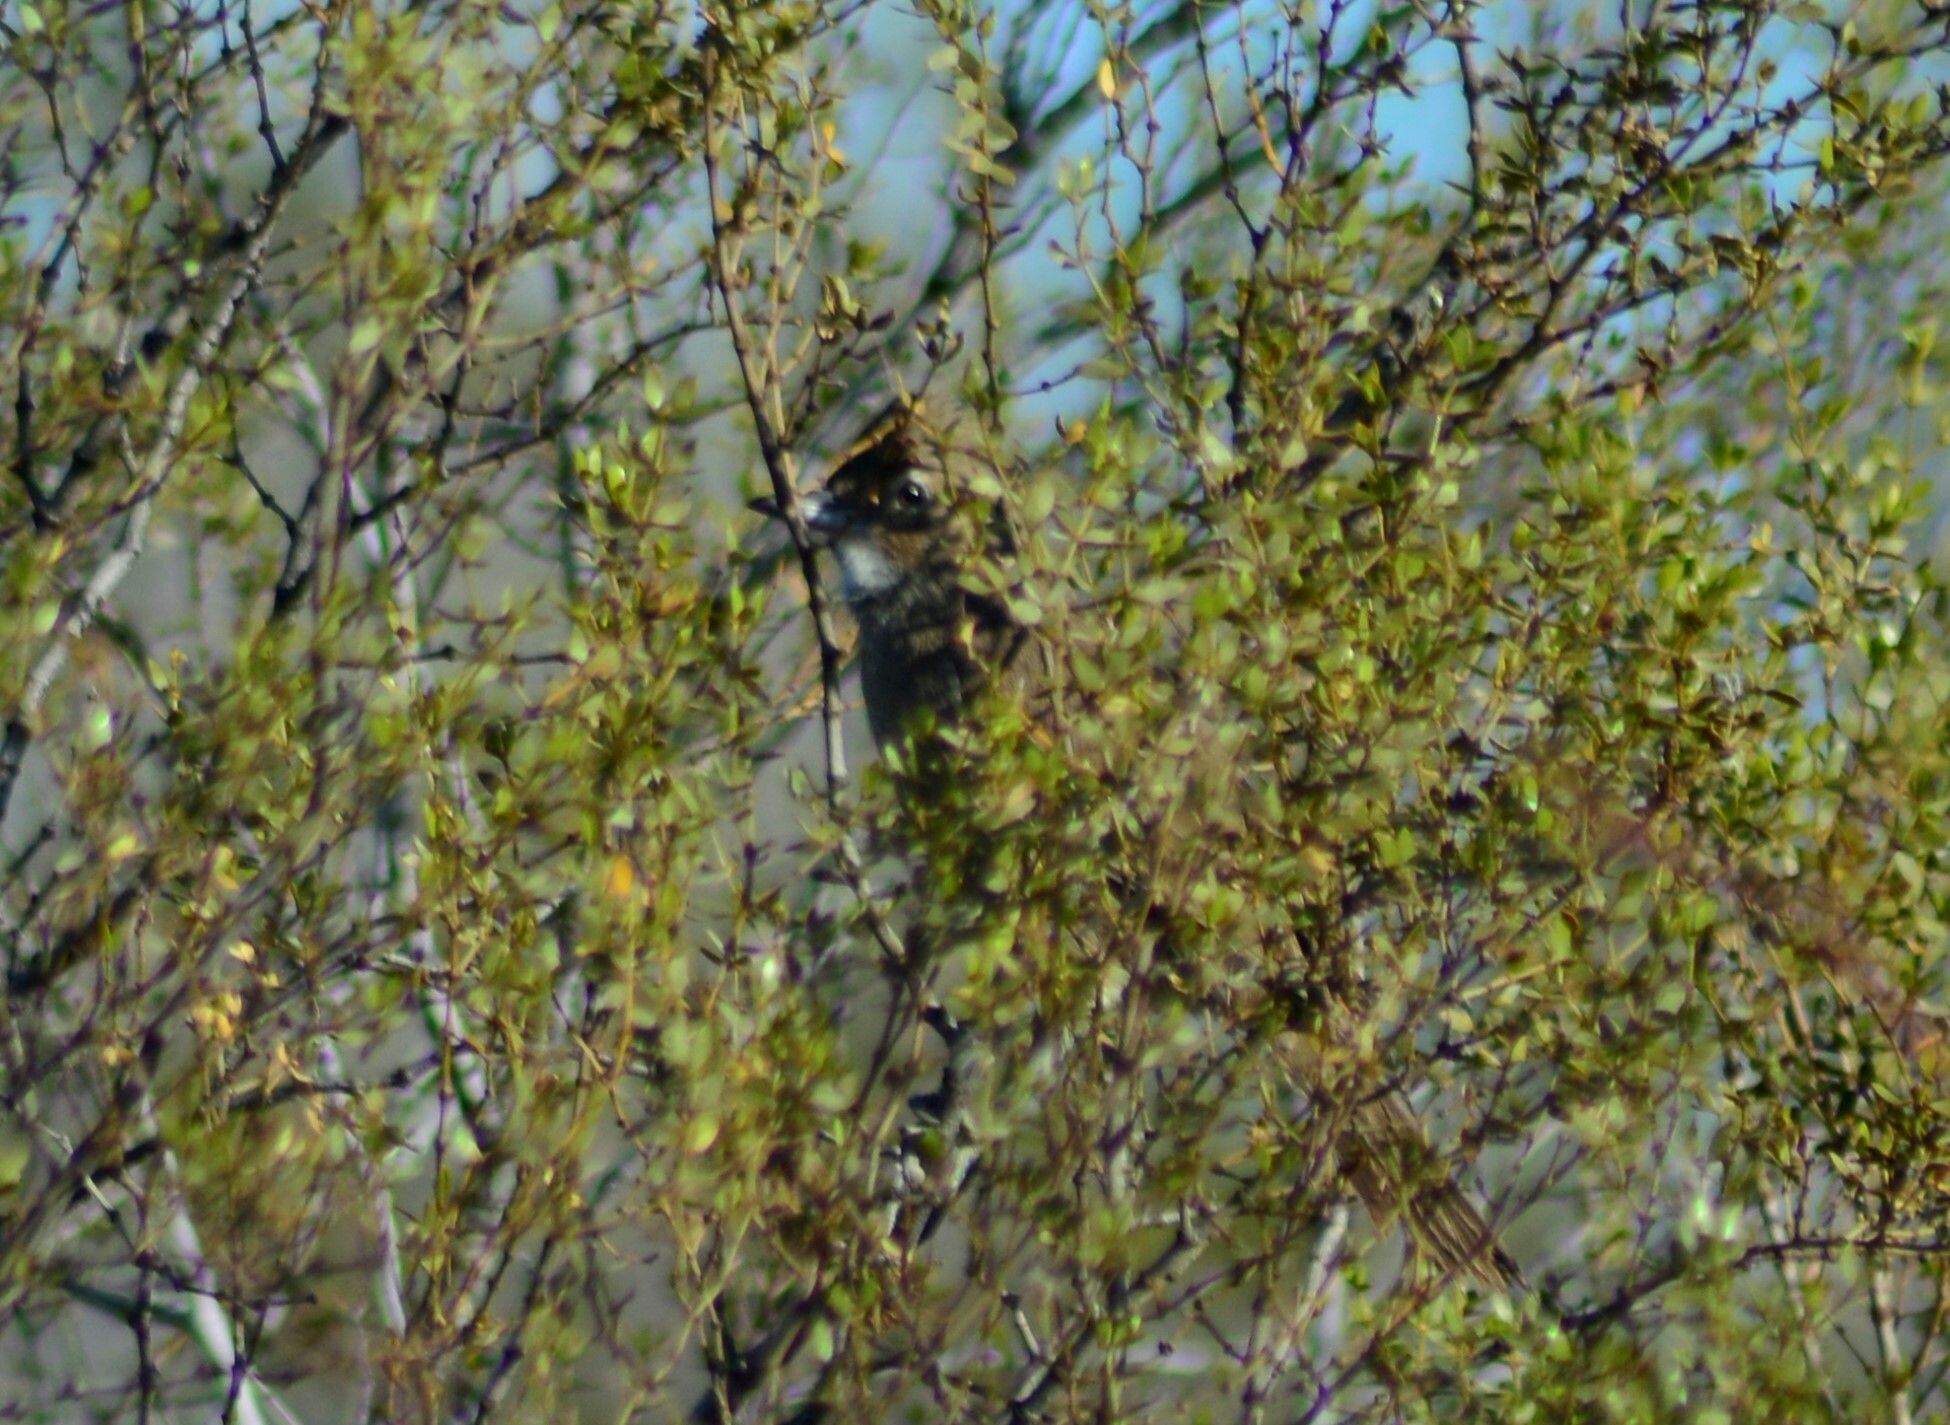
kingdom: Animalia
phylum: Chordata
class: Aves
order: Passeriformes
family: Furnariidae
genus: Pseudoseisura
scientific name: Pseudoseisura gutturalis
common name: White-throated cacholote
